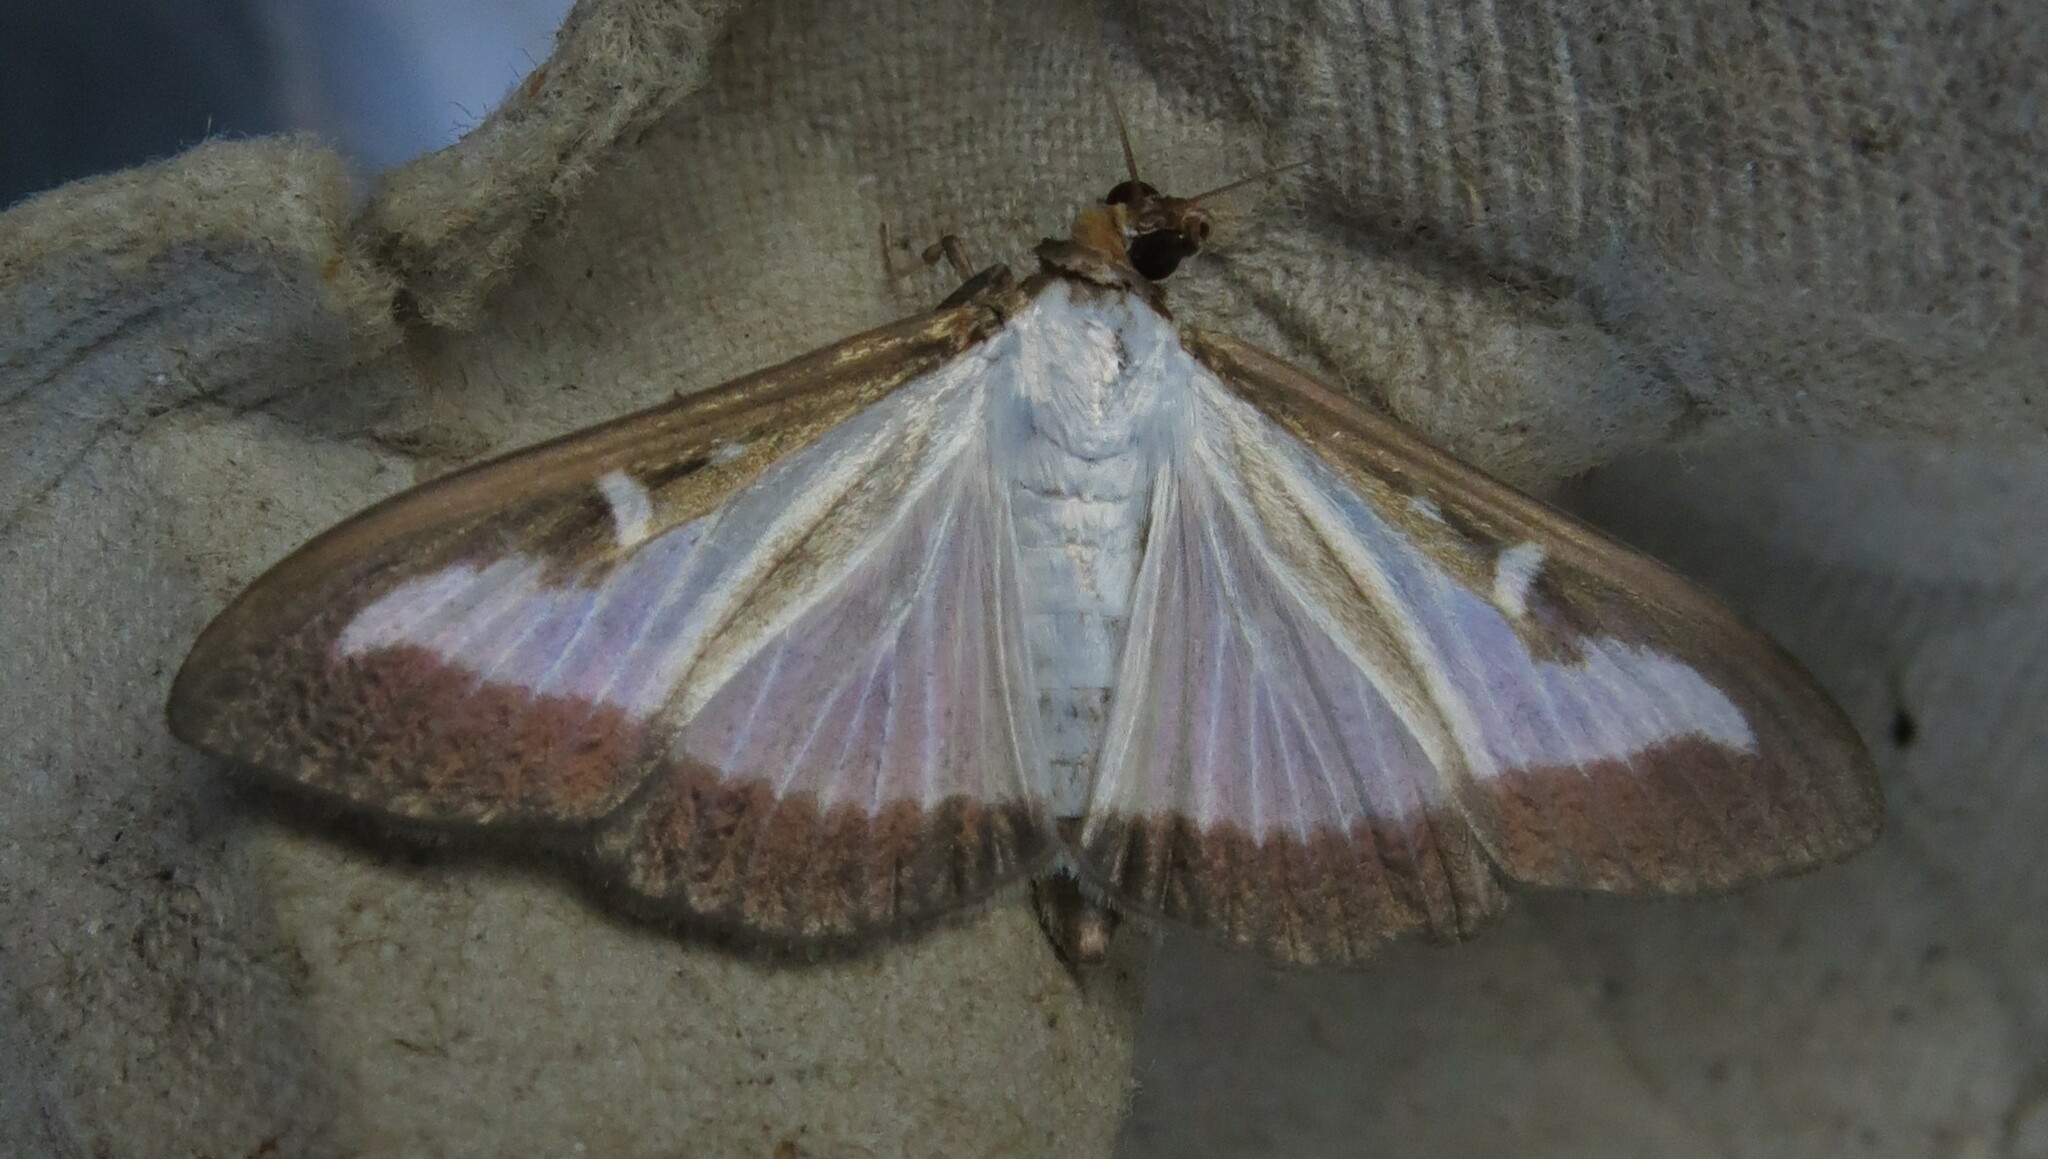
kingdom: Animalia
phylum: Arthropoda
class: Insecta
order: Lepidoptera
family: Crambidae
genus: Cydalima
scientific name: Cydalima perspectalis
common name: Box tree moth
